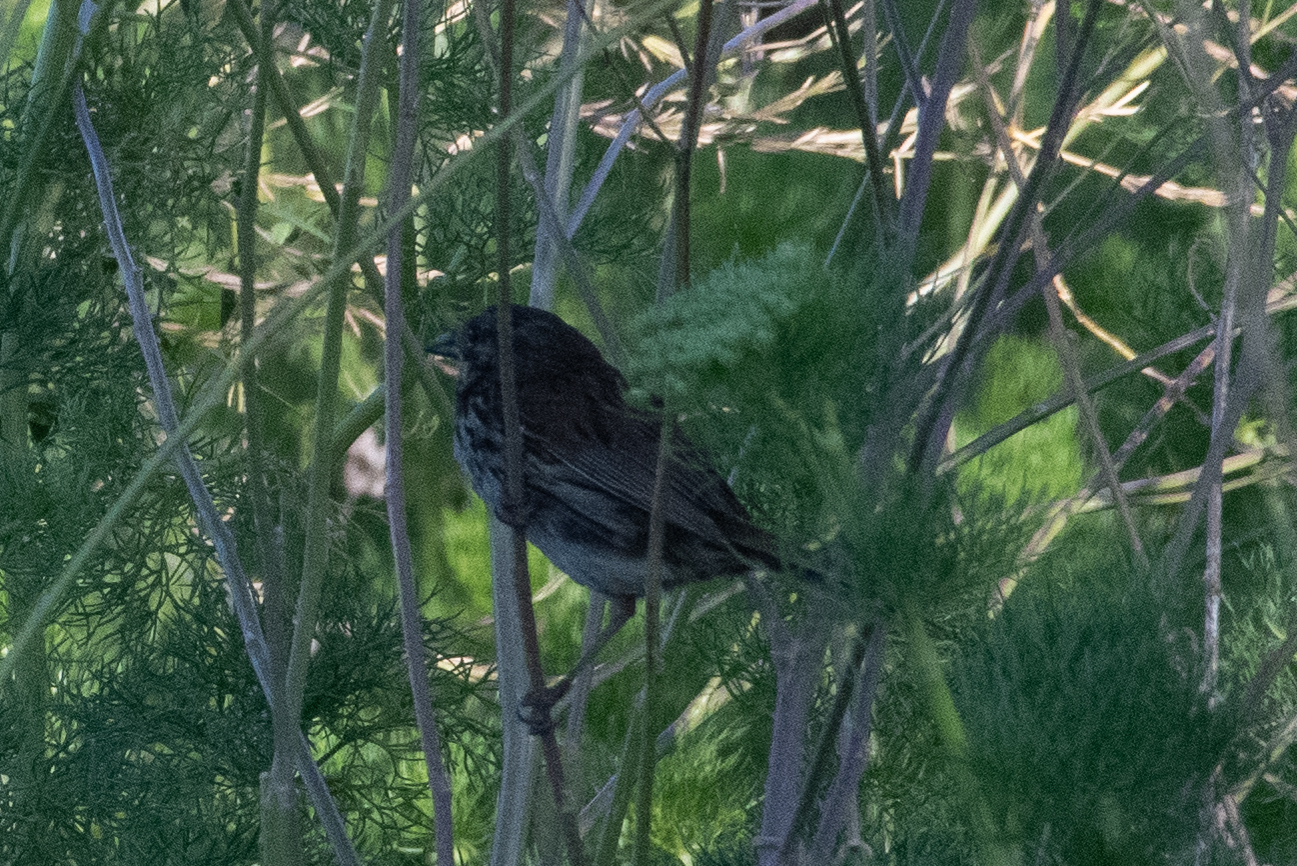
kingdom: Animalia
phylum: Chordata
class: Aves
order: Passeriformes
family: Passerellidae
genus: Melospiza
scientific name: Melospiza melodia
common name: Song sparrow
